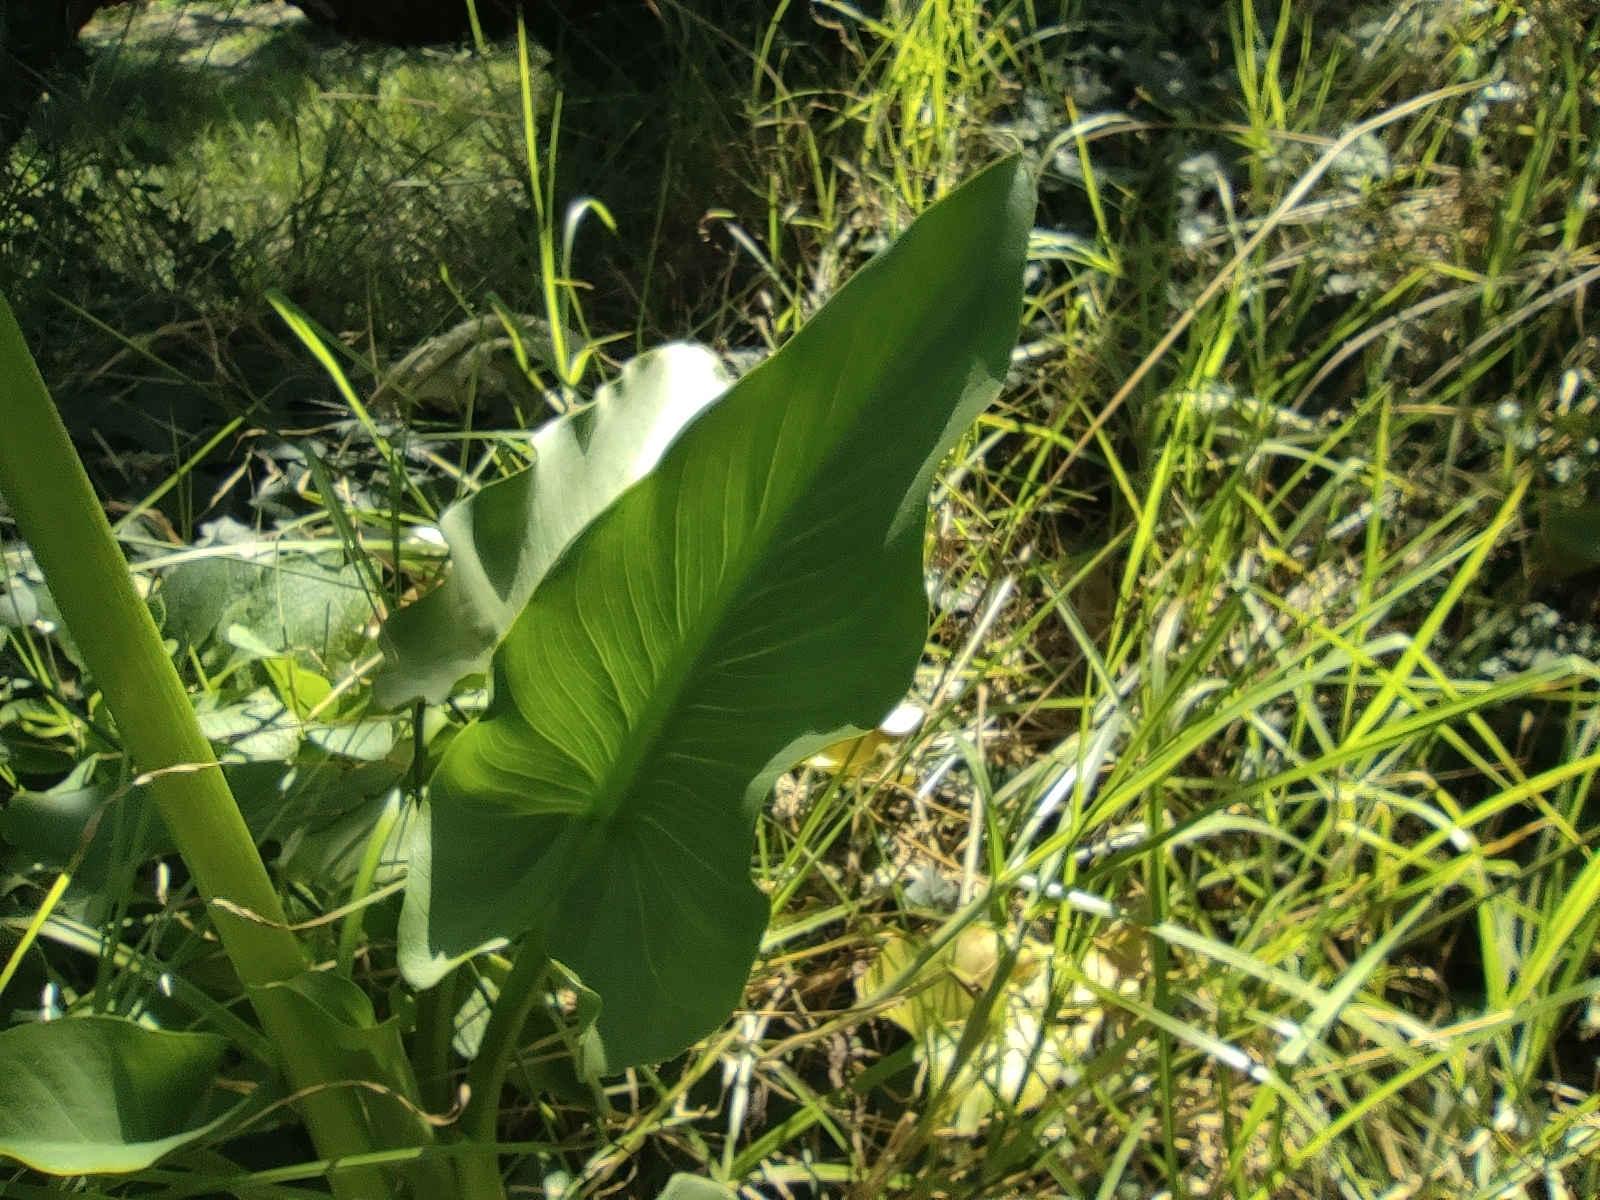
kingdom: Plantae
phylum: Tracheophyta
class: Liliopsida
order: Alismatales
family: Araceae
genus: Zantedeschia
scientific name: Zantedeschia aethiopica
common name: Altar-lily
